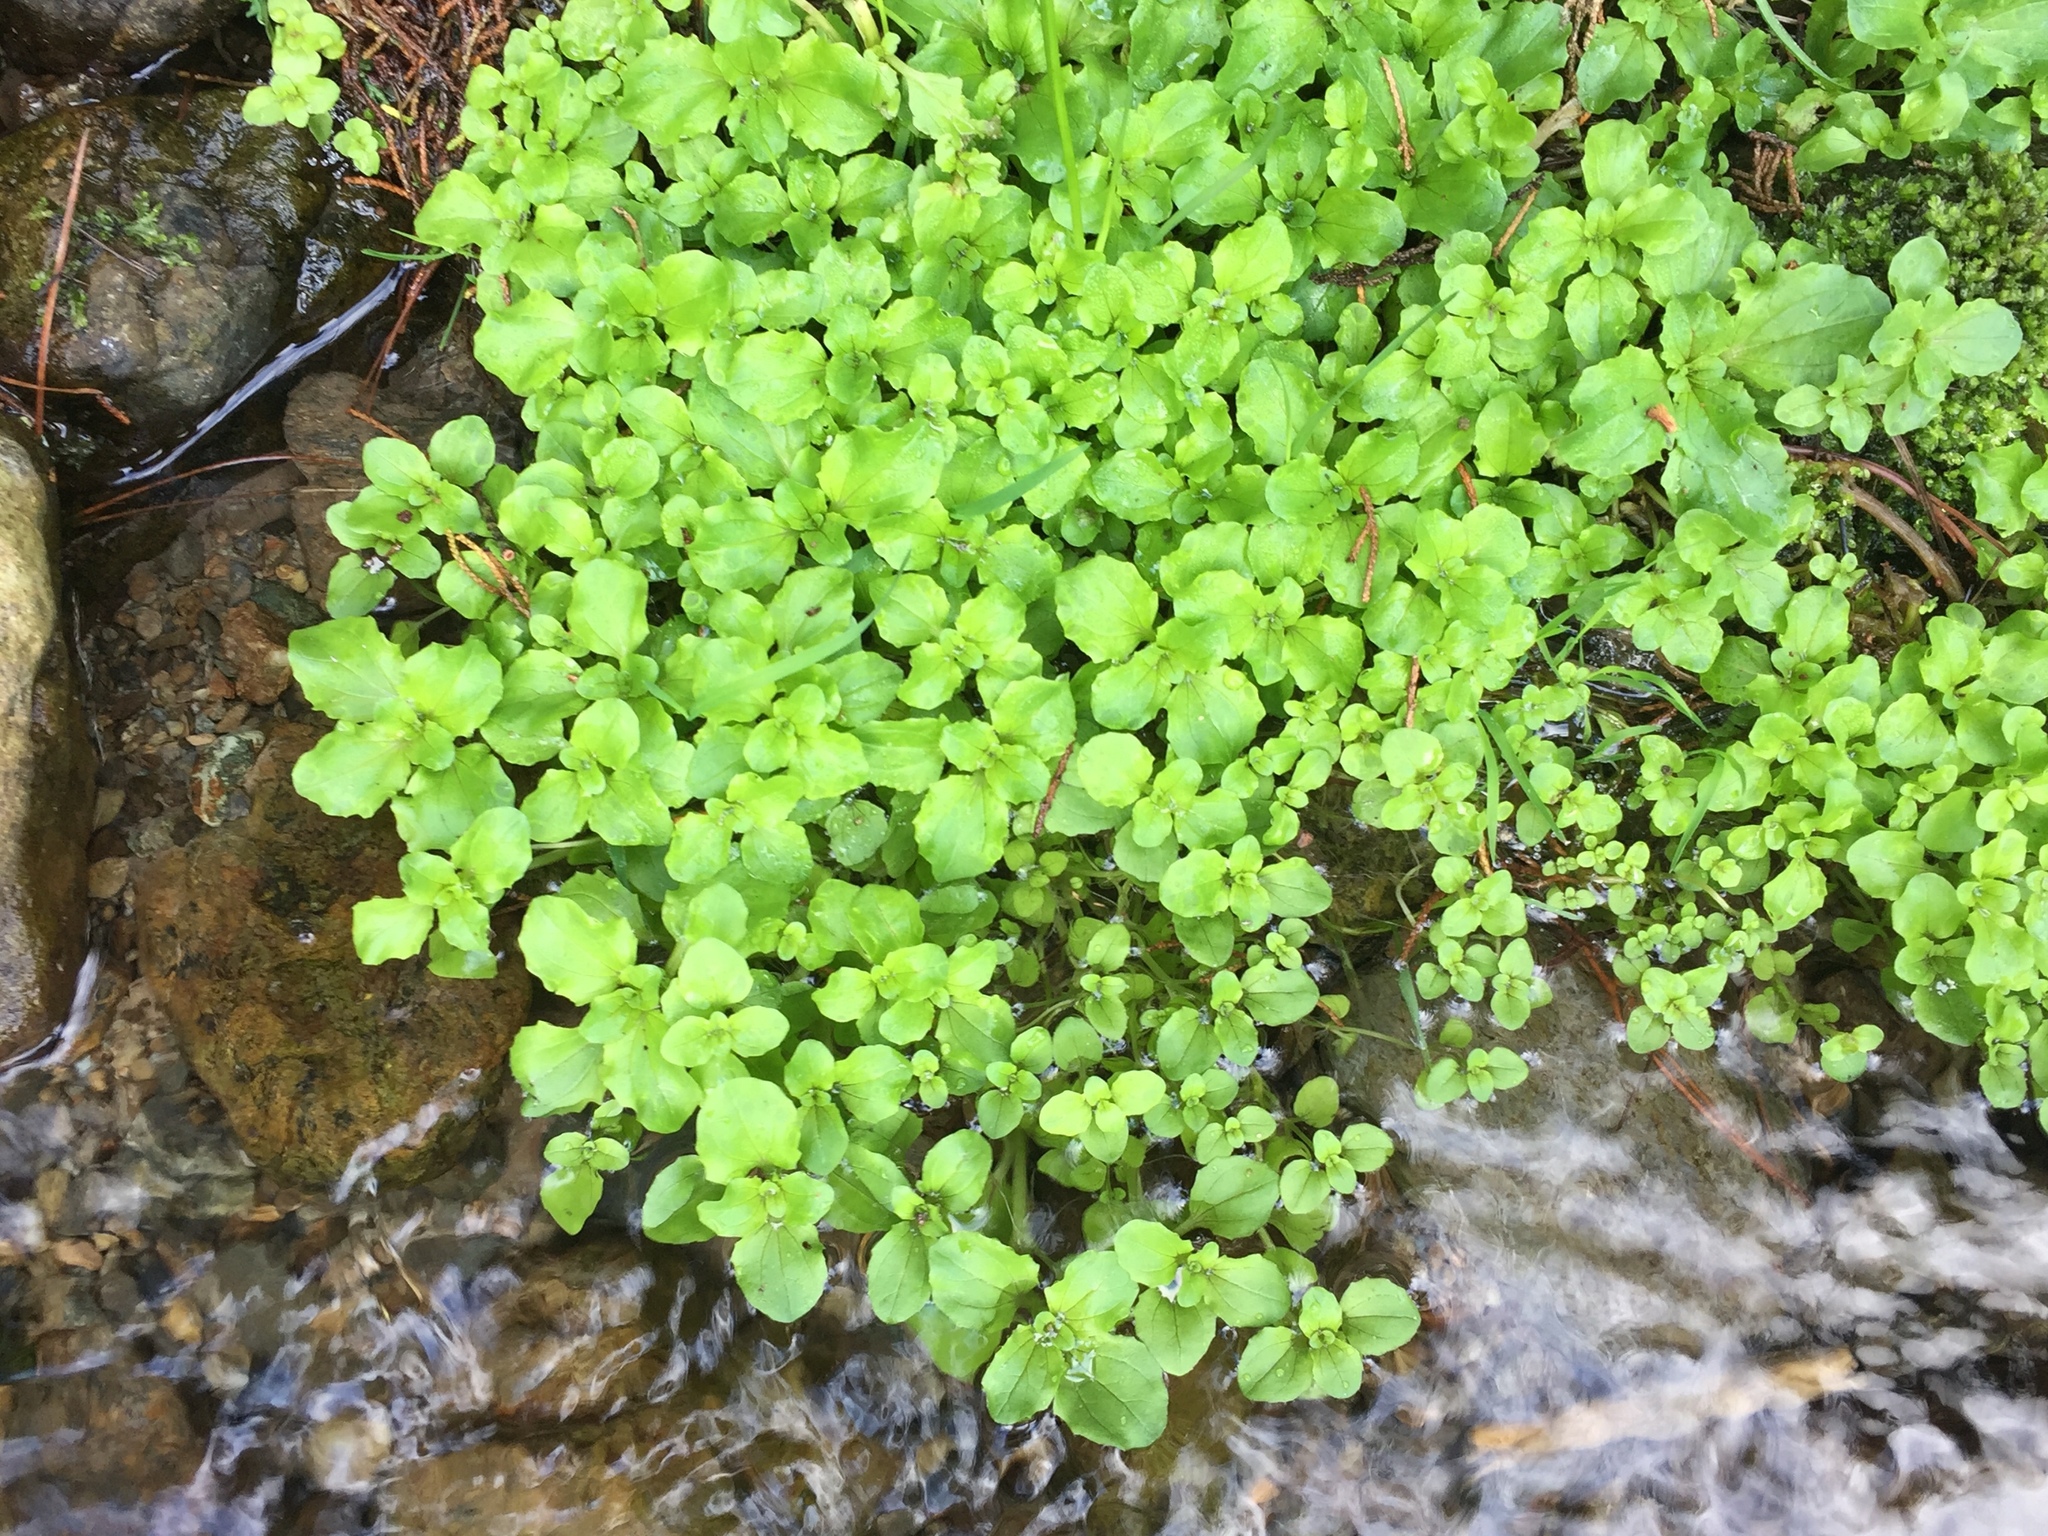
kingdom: Plantae
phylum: Tracheophyta
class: Magnoliopsida
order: Lamiales
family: Phrymaceae
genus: Erythranthe
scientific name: Erythranthe guttata
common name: Monkeyflower
